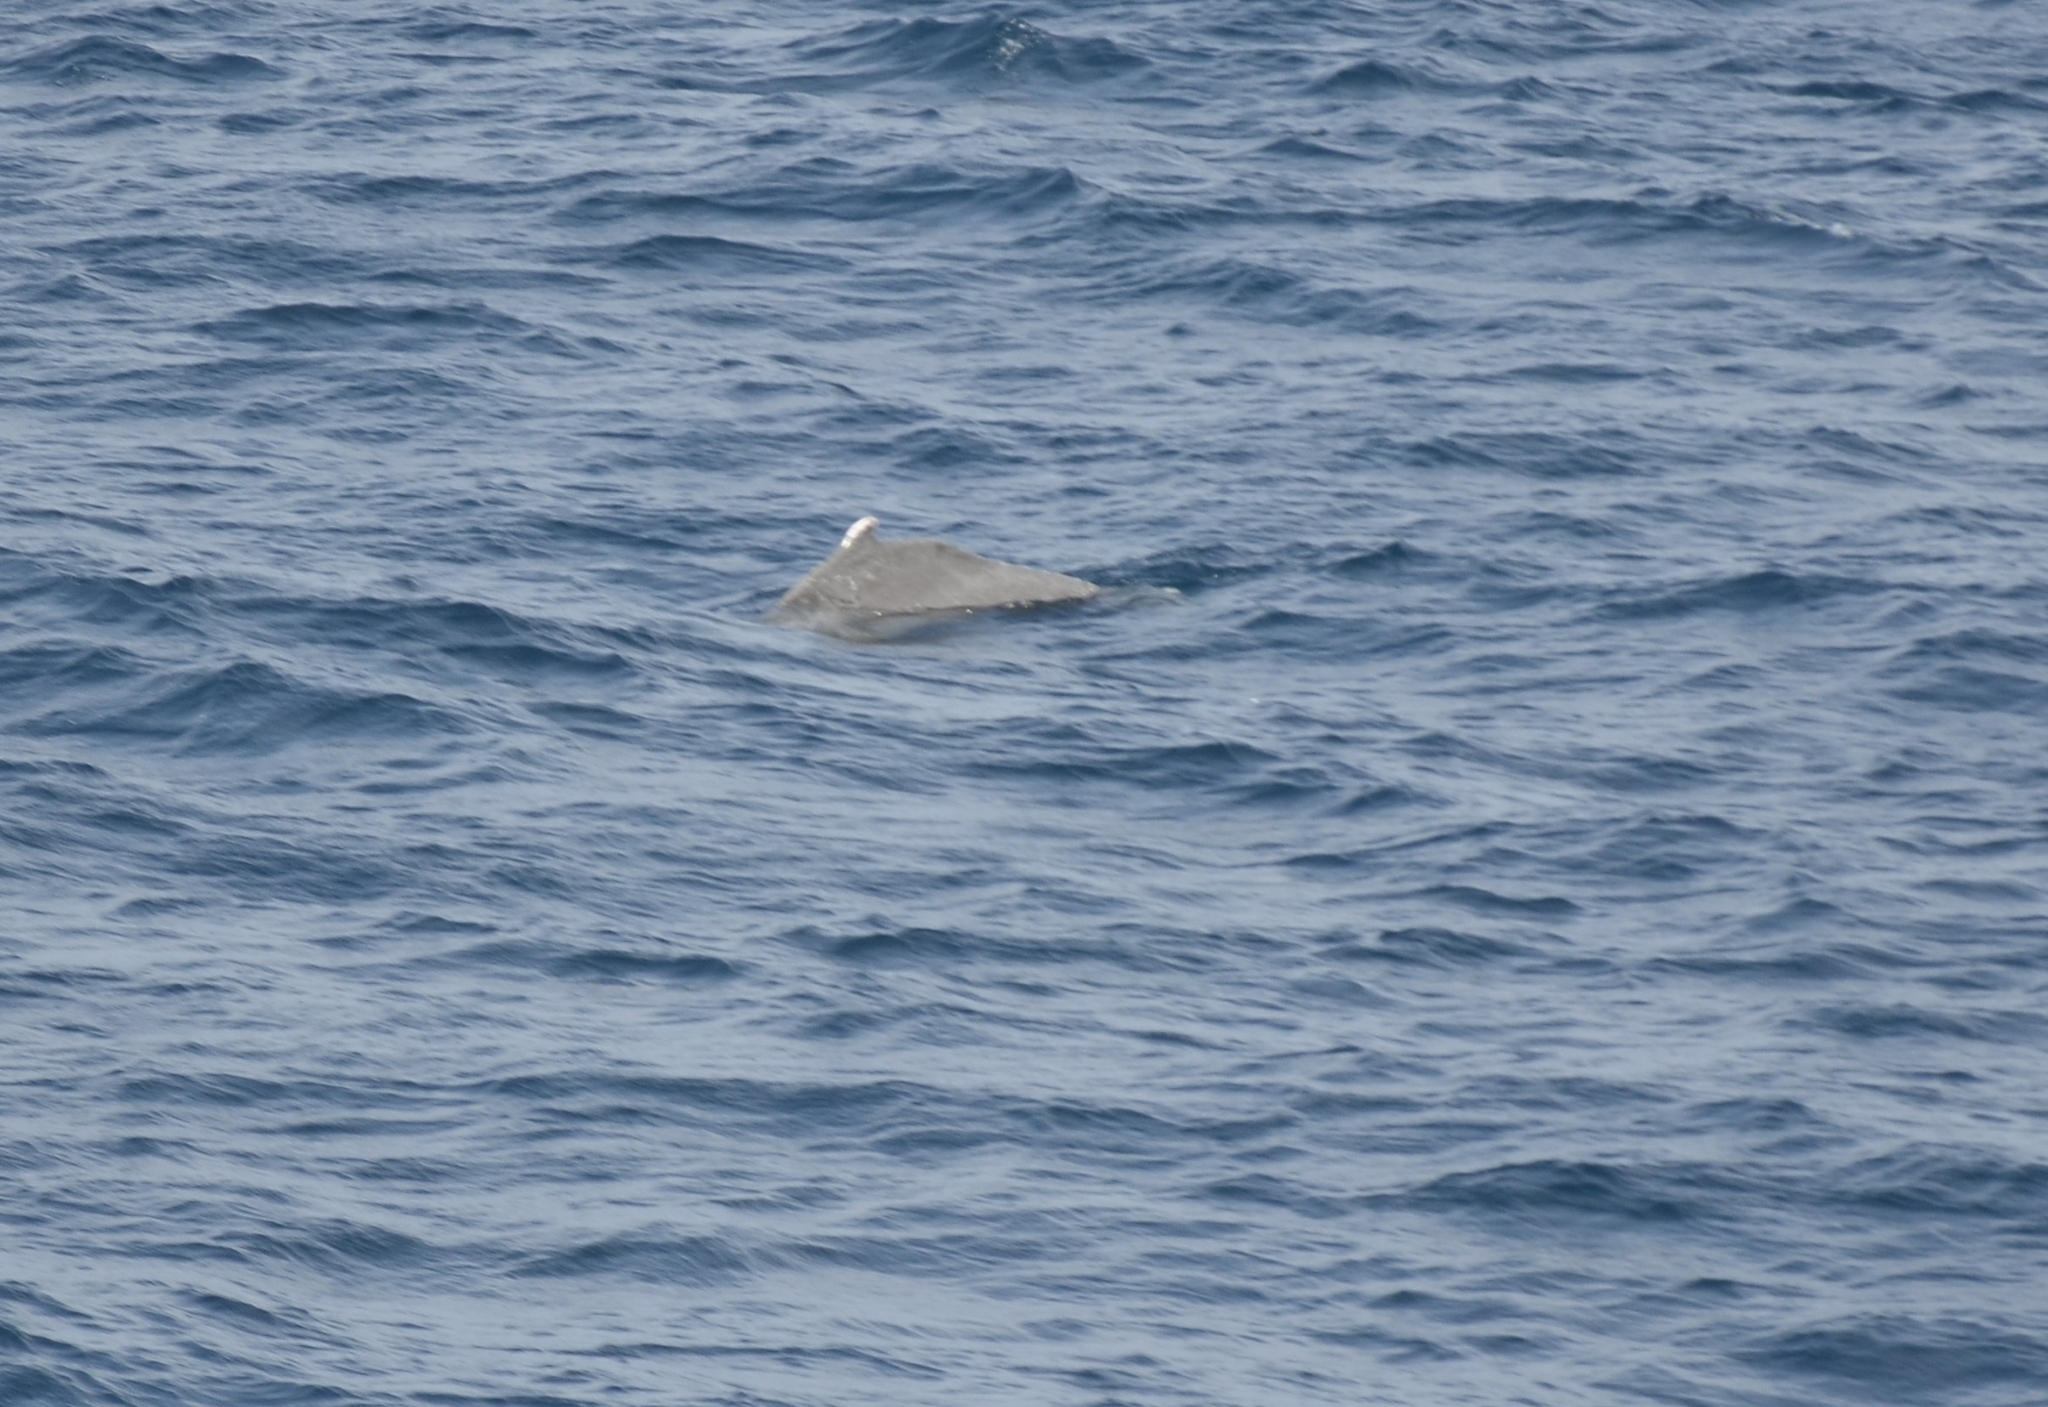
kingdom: Animalia
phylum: Chordata
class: Mammalia
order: Cetacea
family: Delphinidae
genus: Sousa
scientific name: Sousa plumbea
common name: Indian ocean humpback dolphin
